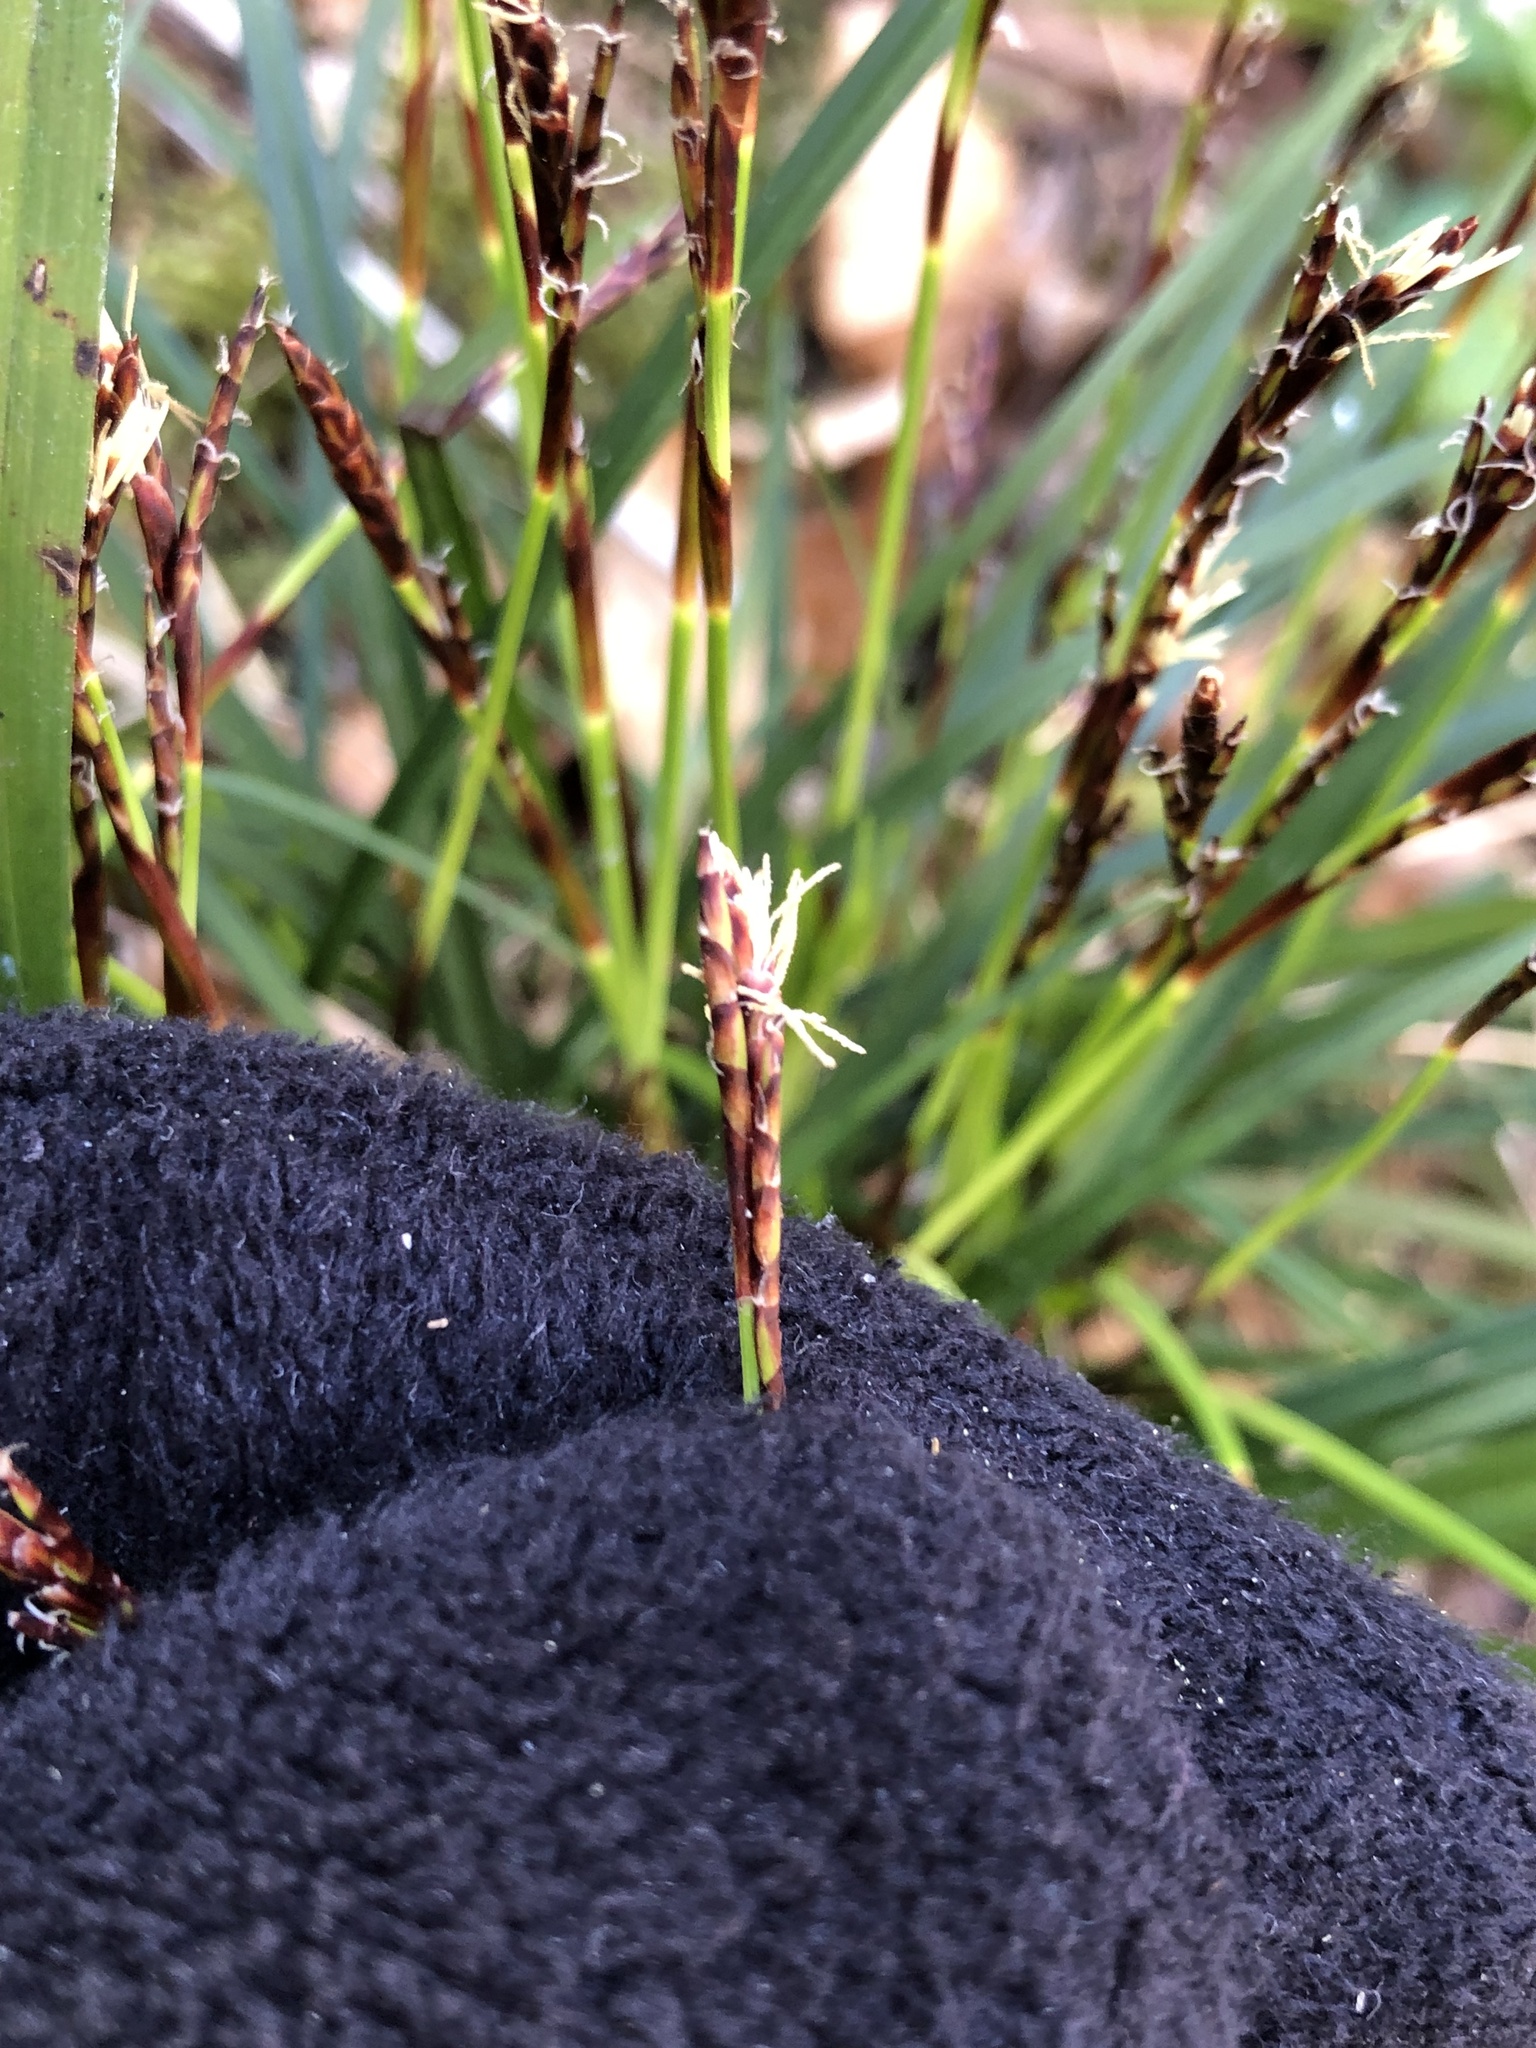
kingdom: Plantae
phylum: Tracheophyta
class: Liliopsida
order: Poales
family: Cyperaceae
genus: Carex
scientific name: Carex digitata
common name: Fingered sedge
